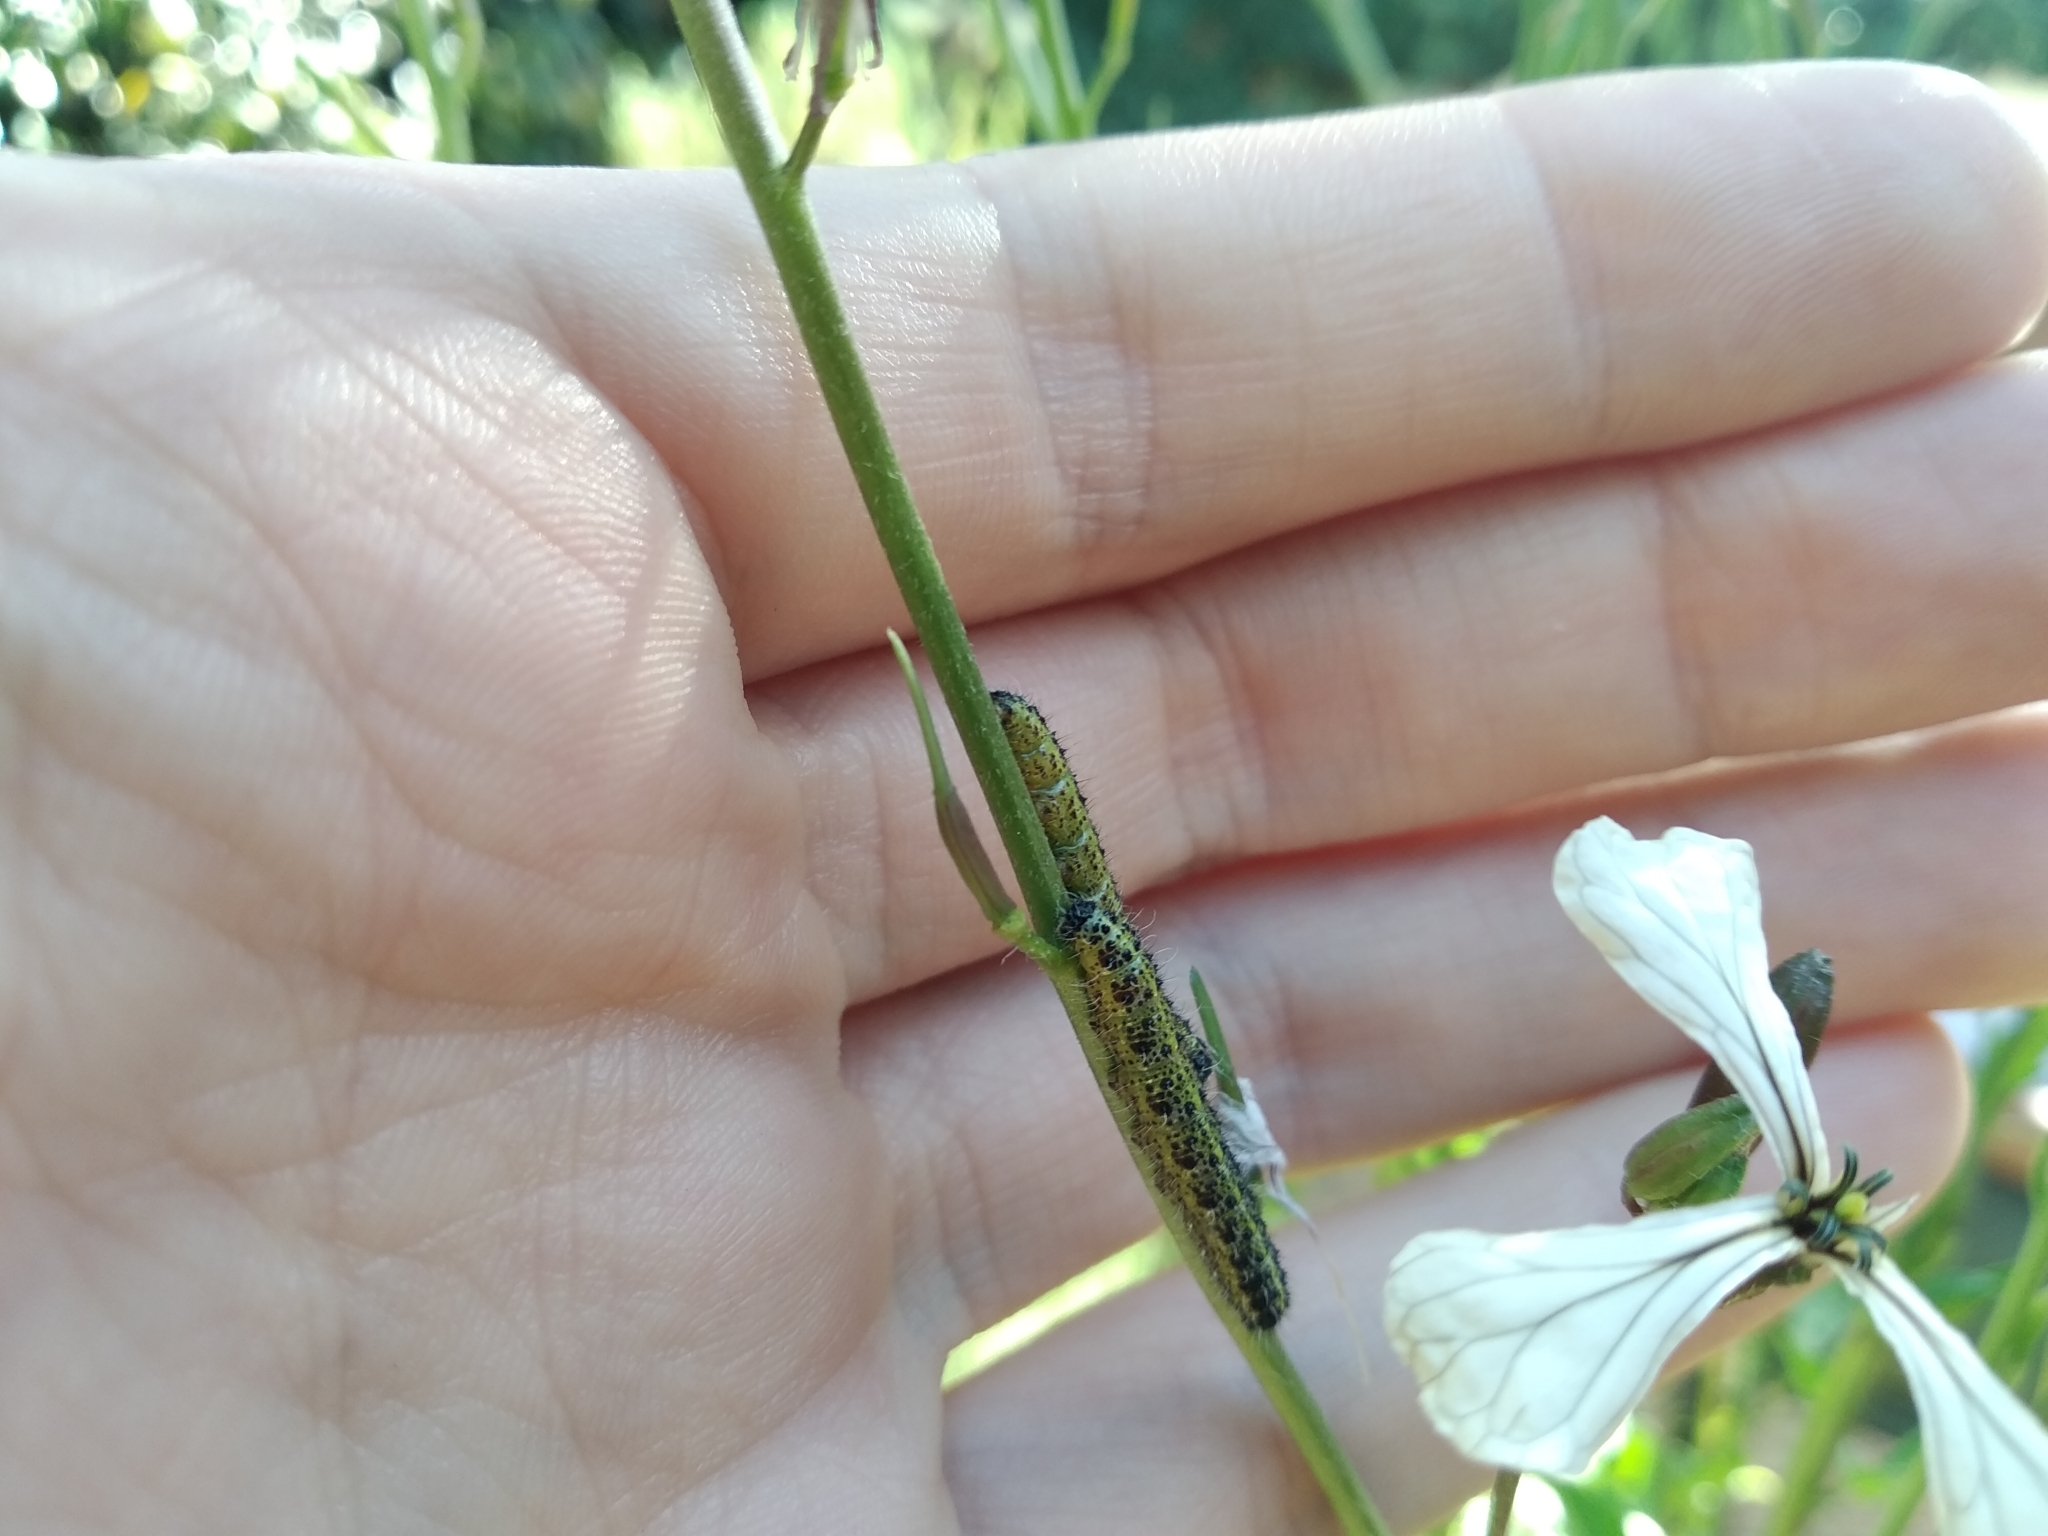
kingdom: Animalia
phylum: Arthropoda
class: Insecta
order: Lepidoptera
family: Pieridae
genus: Pieris
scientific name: Pieris brassicae
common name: Large white
